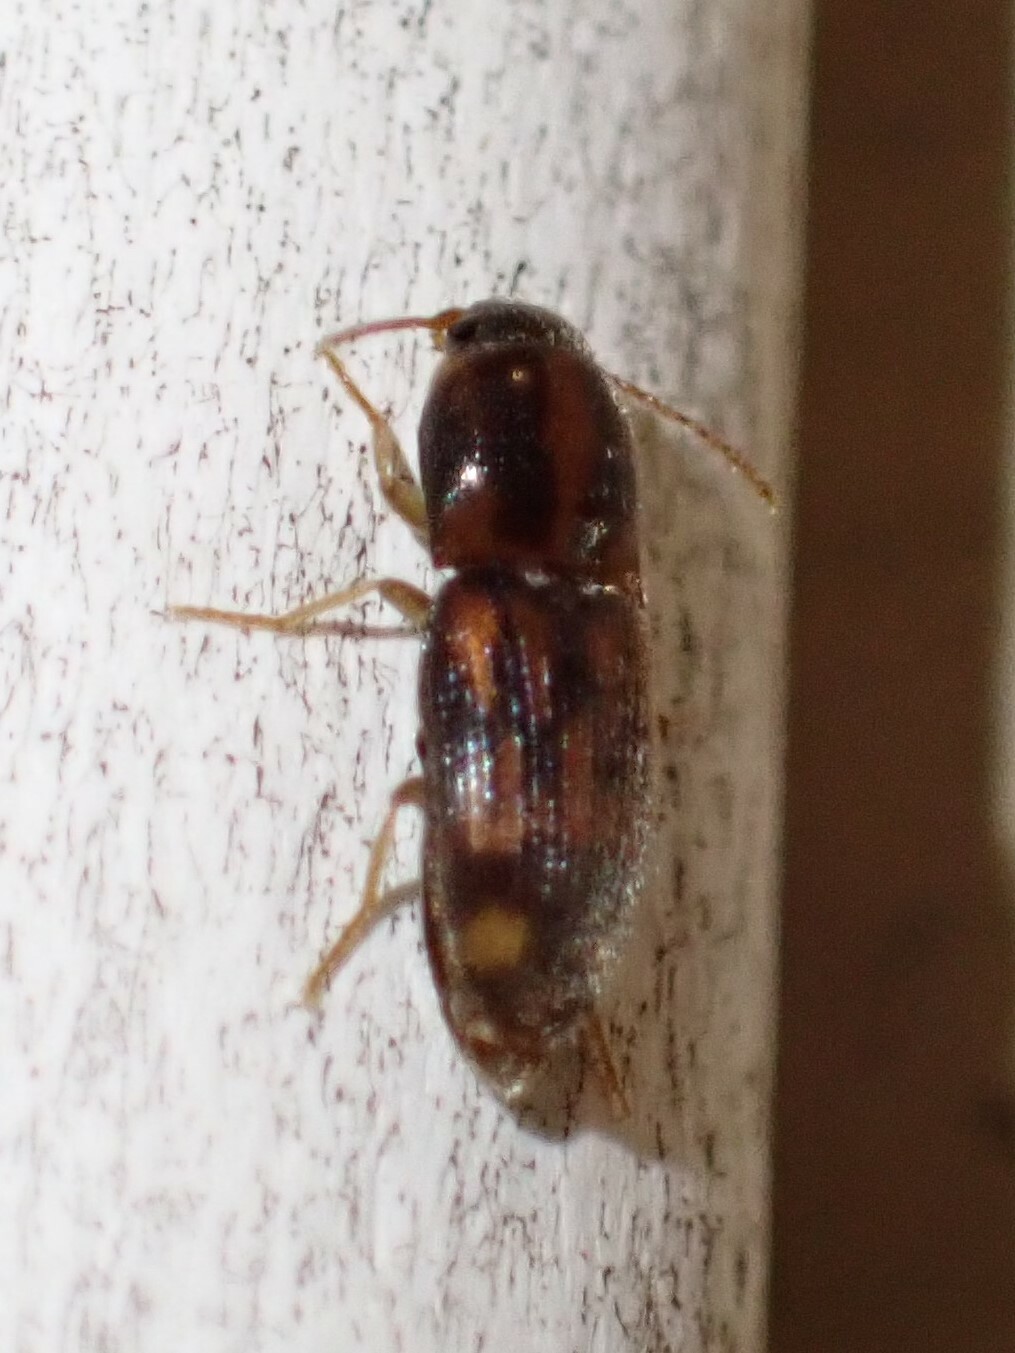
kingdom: Animalia
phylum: Arthropoda
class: Insecta
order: Coleoptera
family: Elateridae
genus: Monocrepidius
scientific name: Monocrepidius bellus
